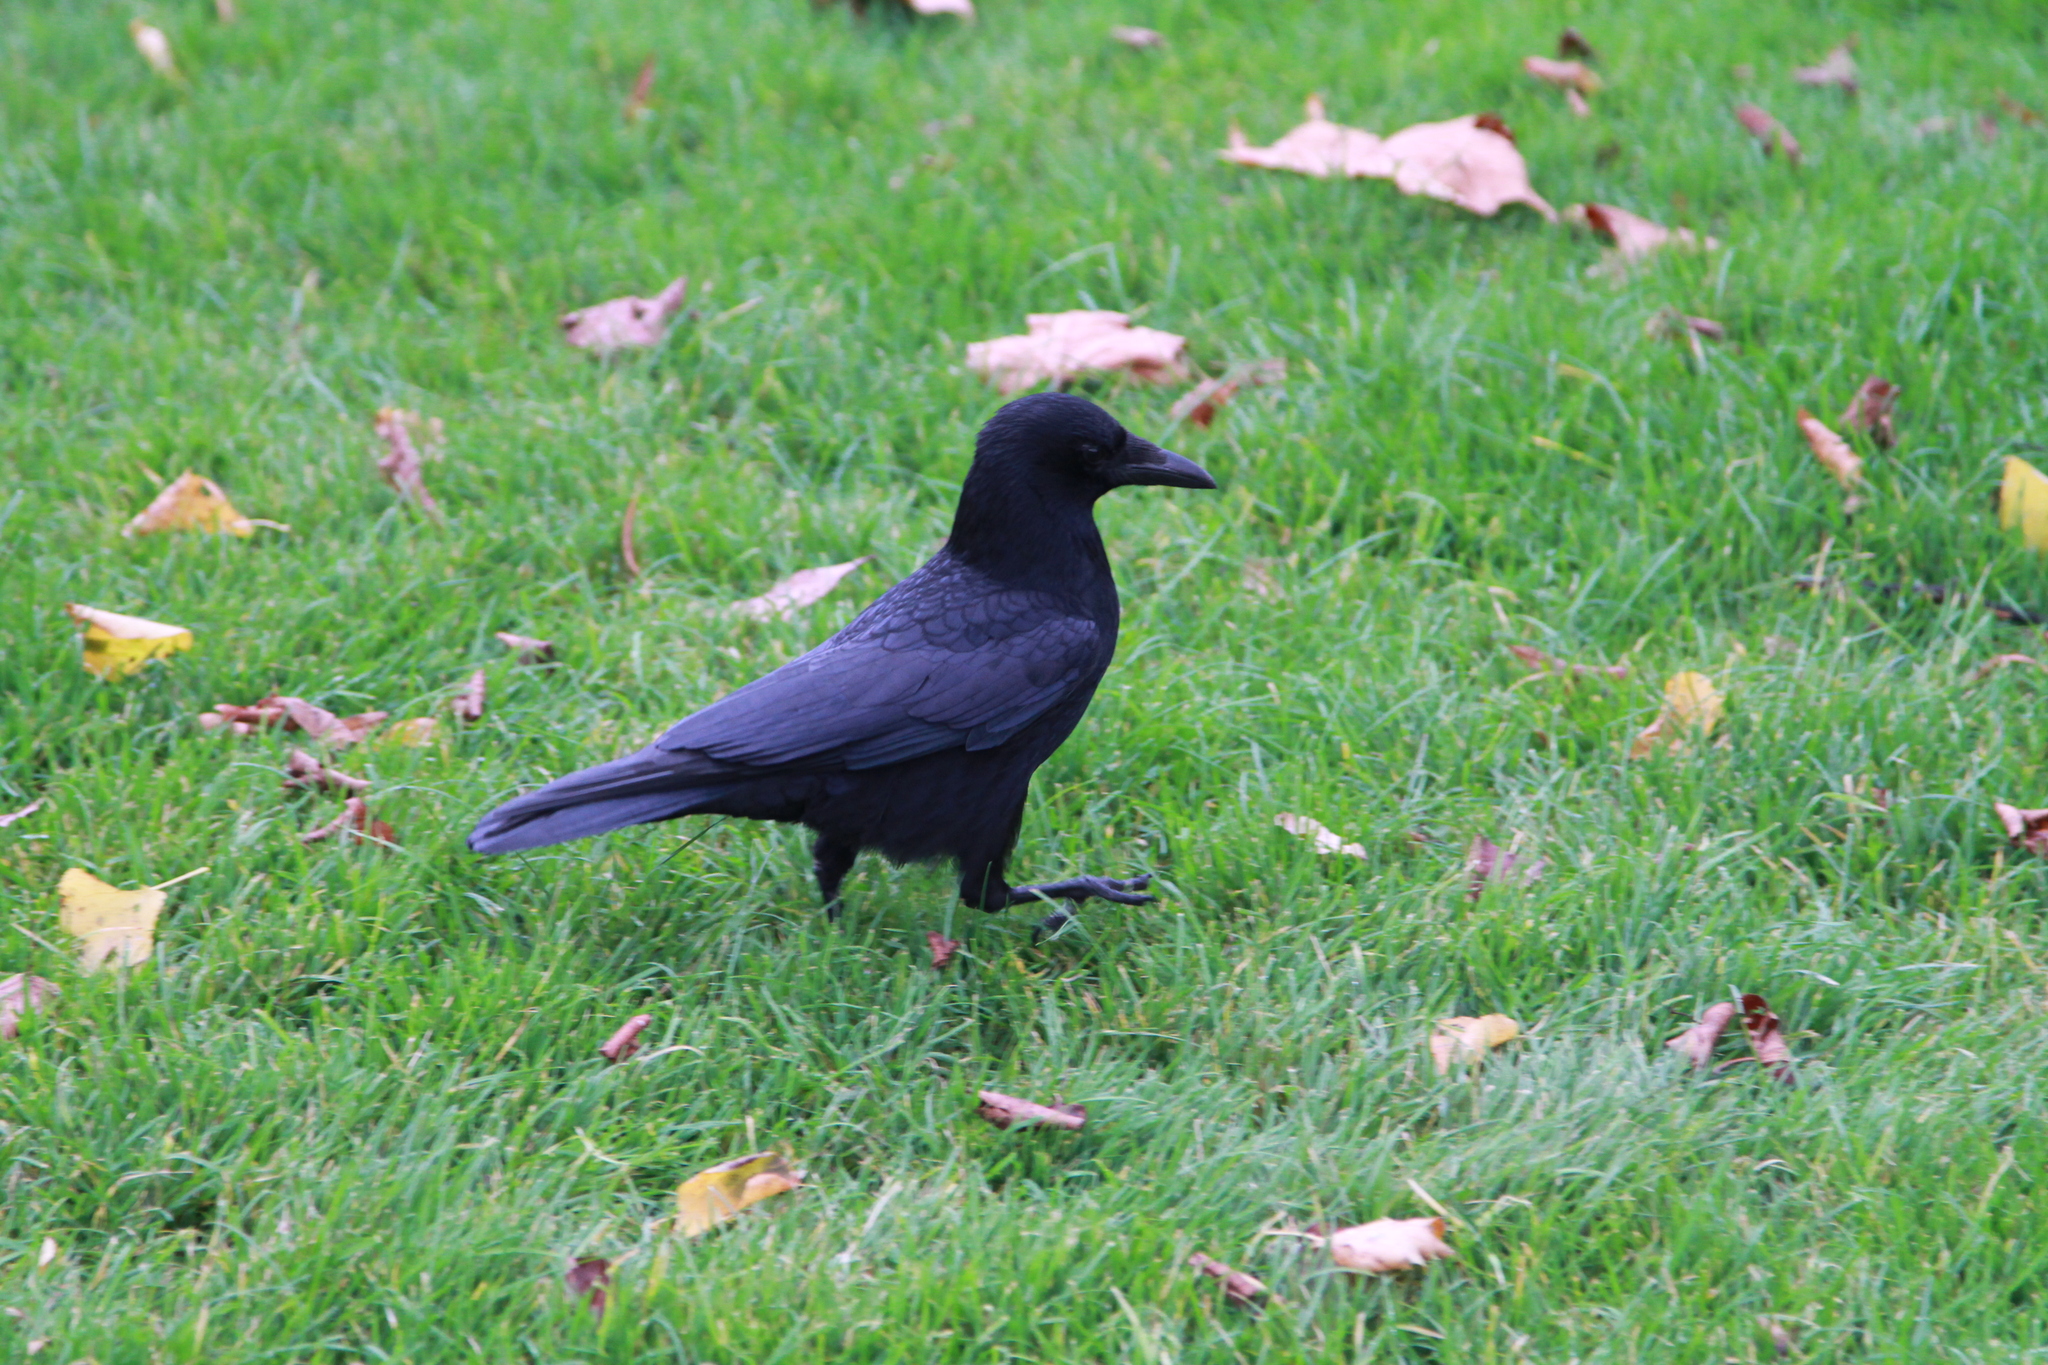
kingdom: Animalia
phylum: Chordata
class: Aves
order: Passeriformes
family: Corvidae
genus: Corvus
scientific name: Corvus corone
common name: Carrion crow
